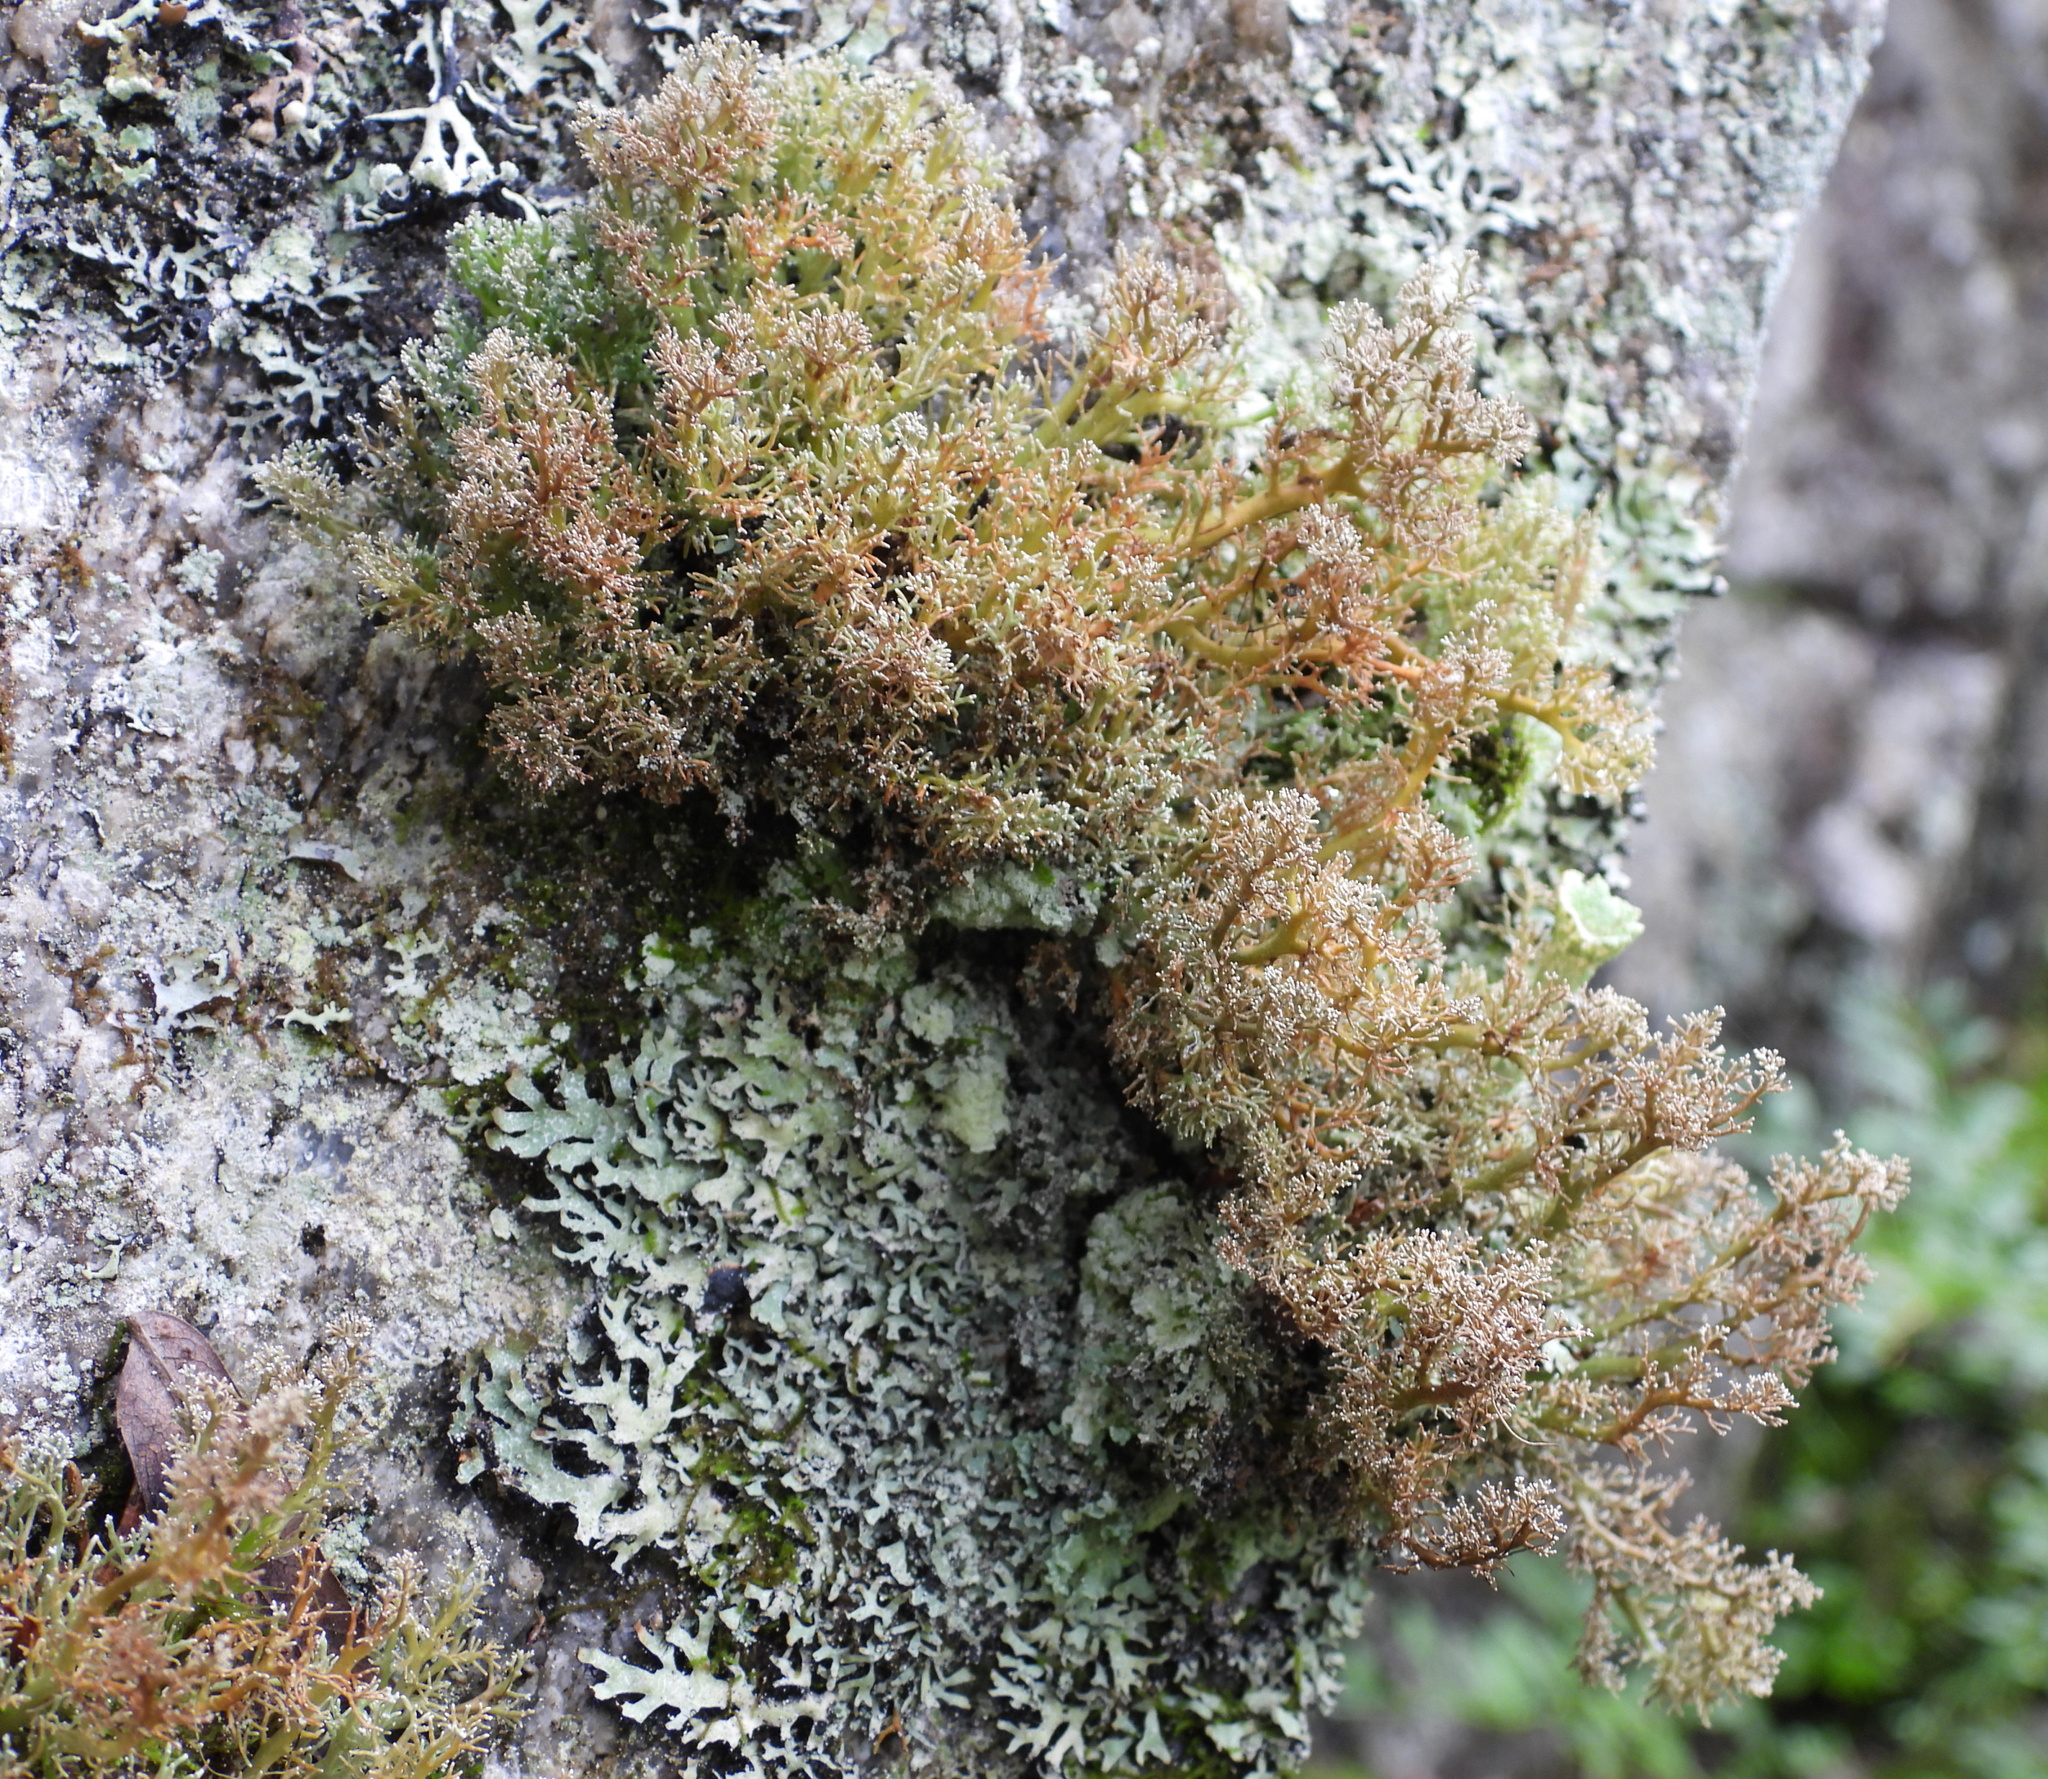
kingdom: Fungi
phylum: Ascomycota
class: Lecanoromycetes
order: Lecanorales
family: Sphaerophoraceae
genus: Sphaerophorus
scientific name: Sphaerophorus globosus
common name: Globe ball lichen
